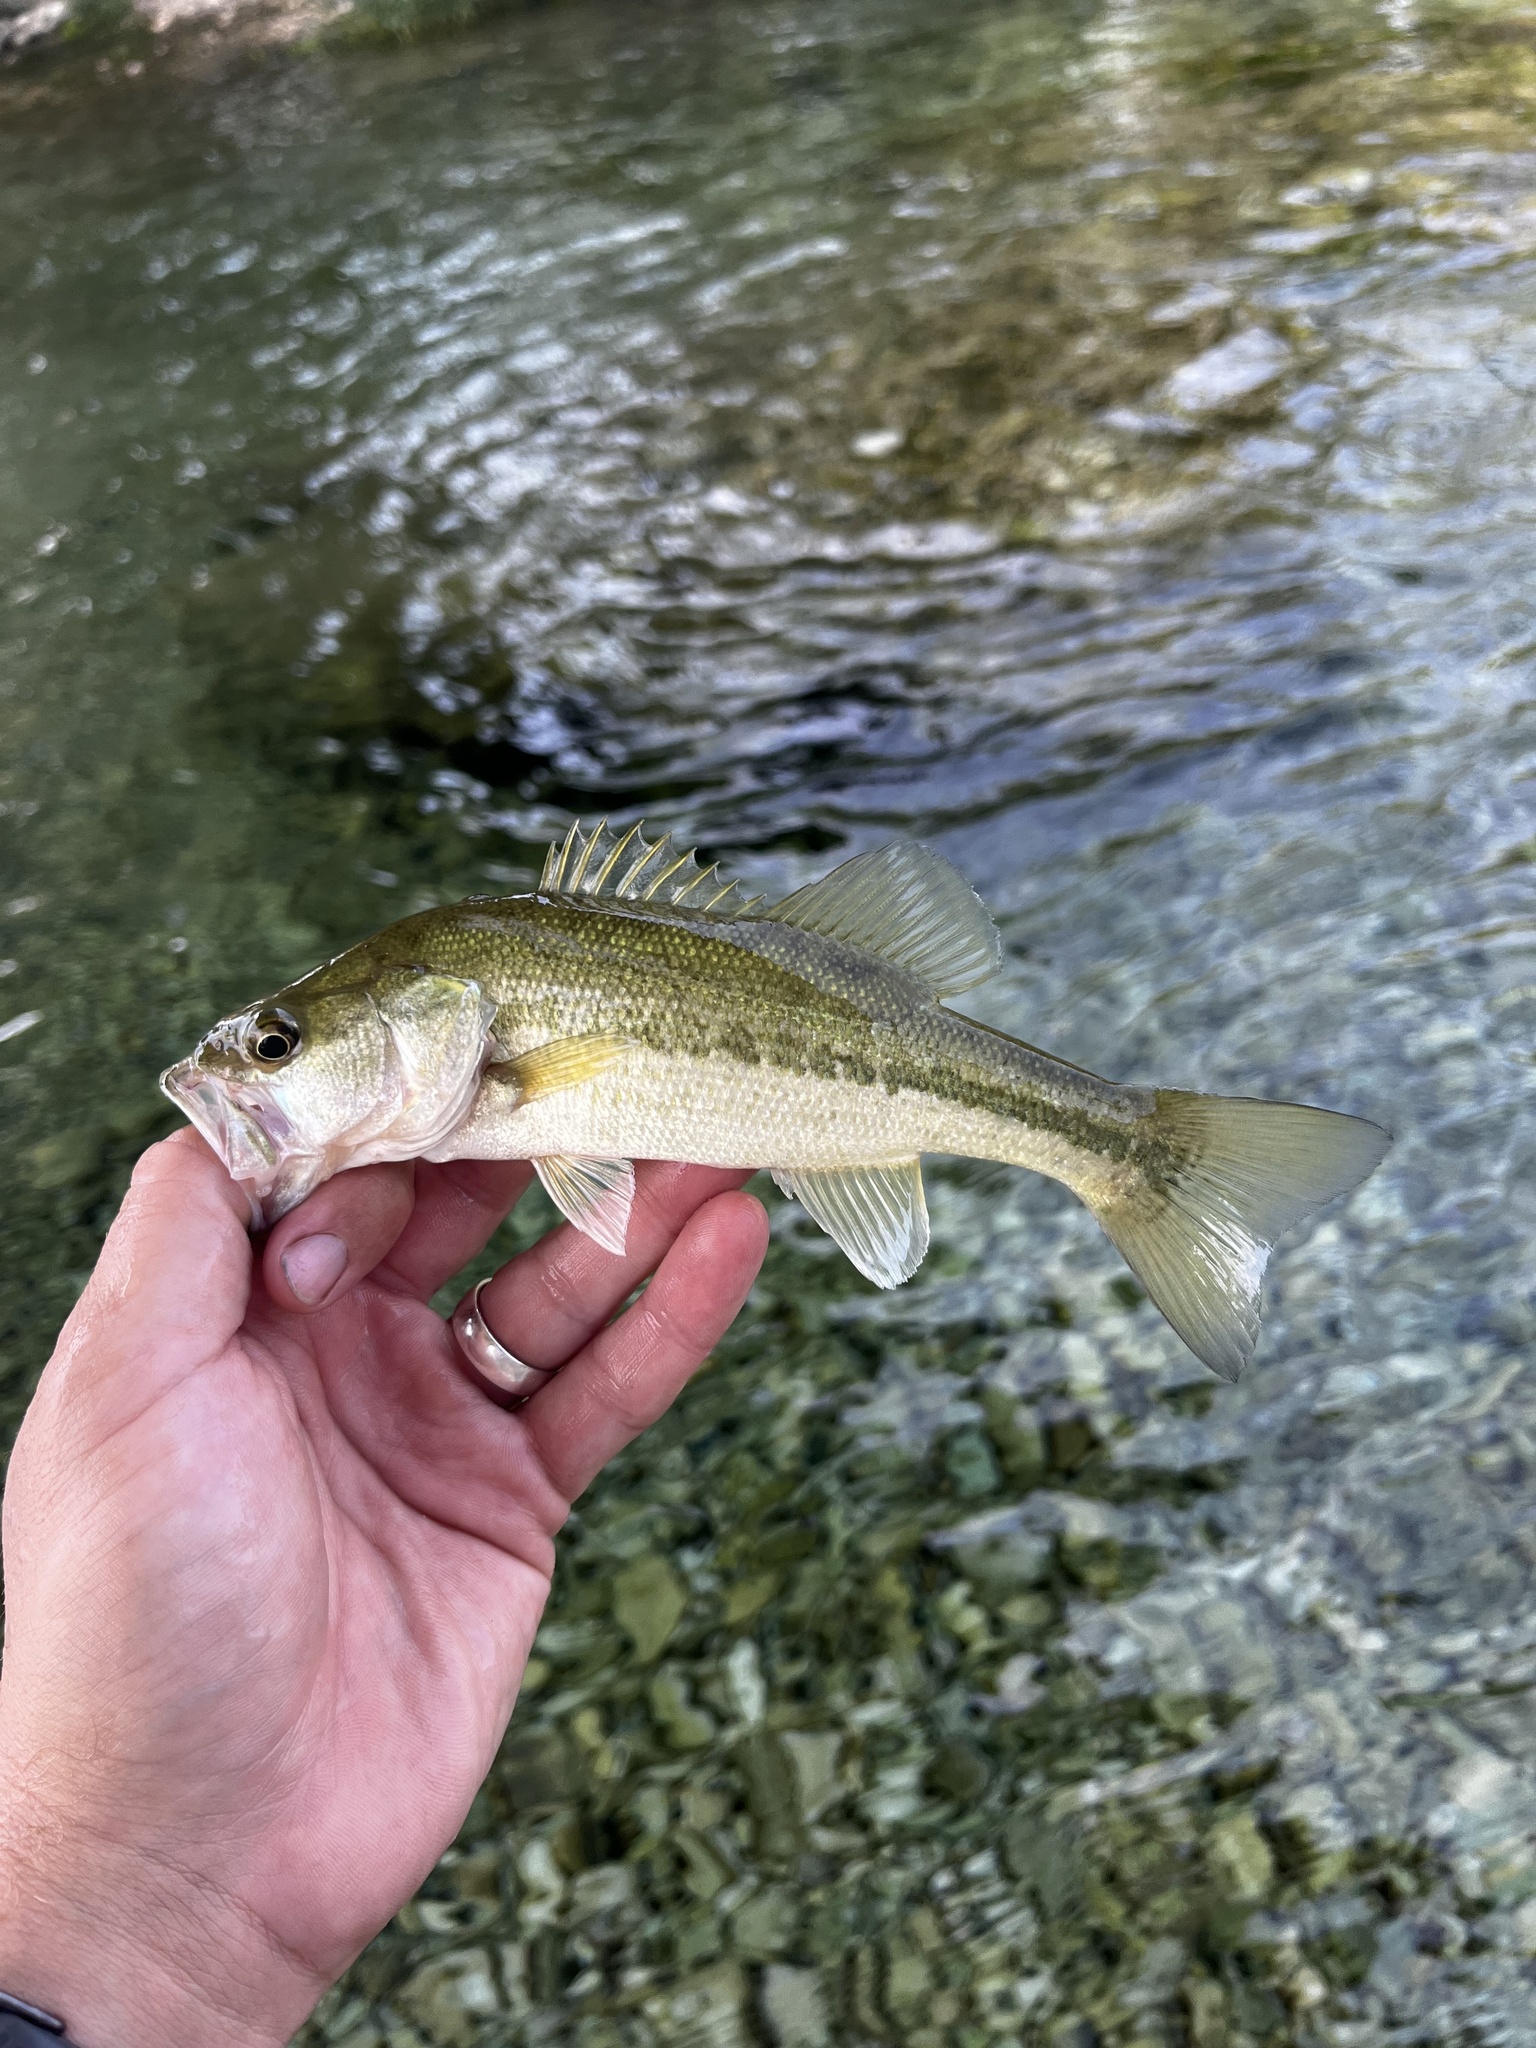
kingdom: Animalia
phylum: Chordata
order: Perciformes
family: Centrarchidae
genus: Micropterus
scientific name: Micropterus
